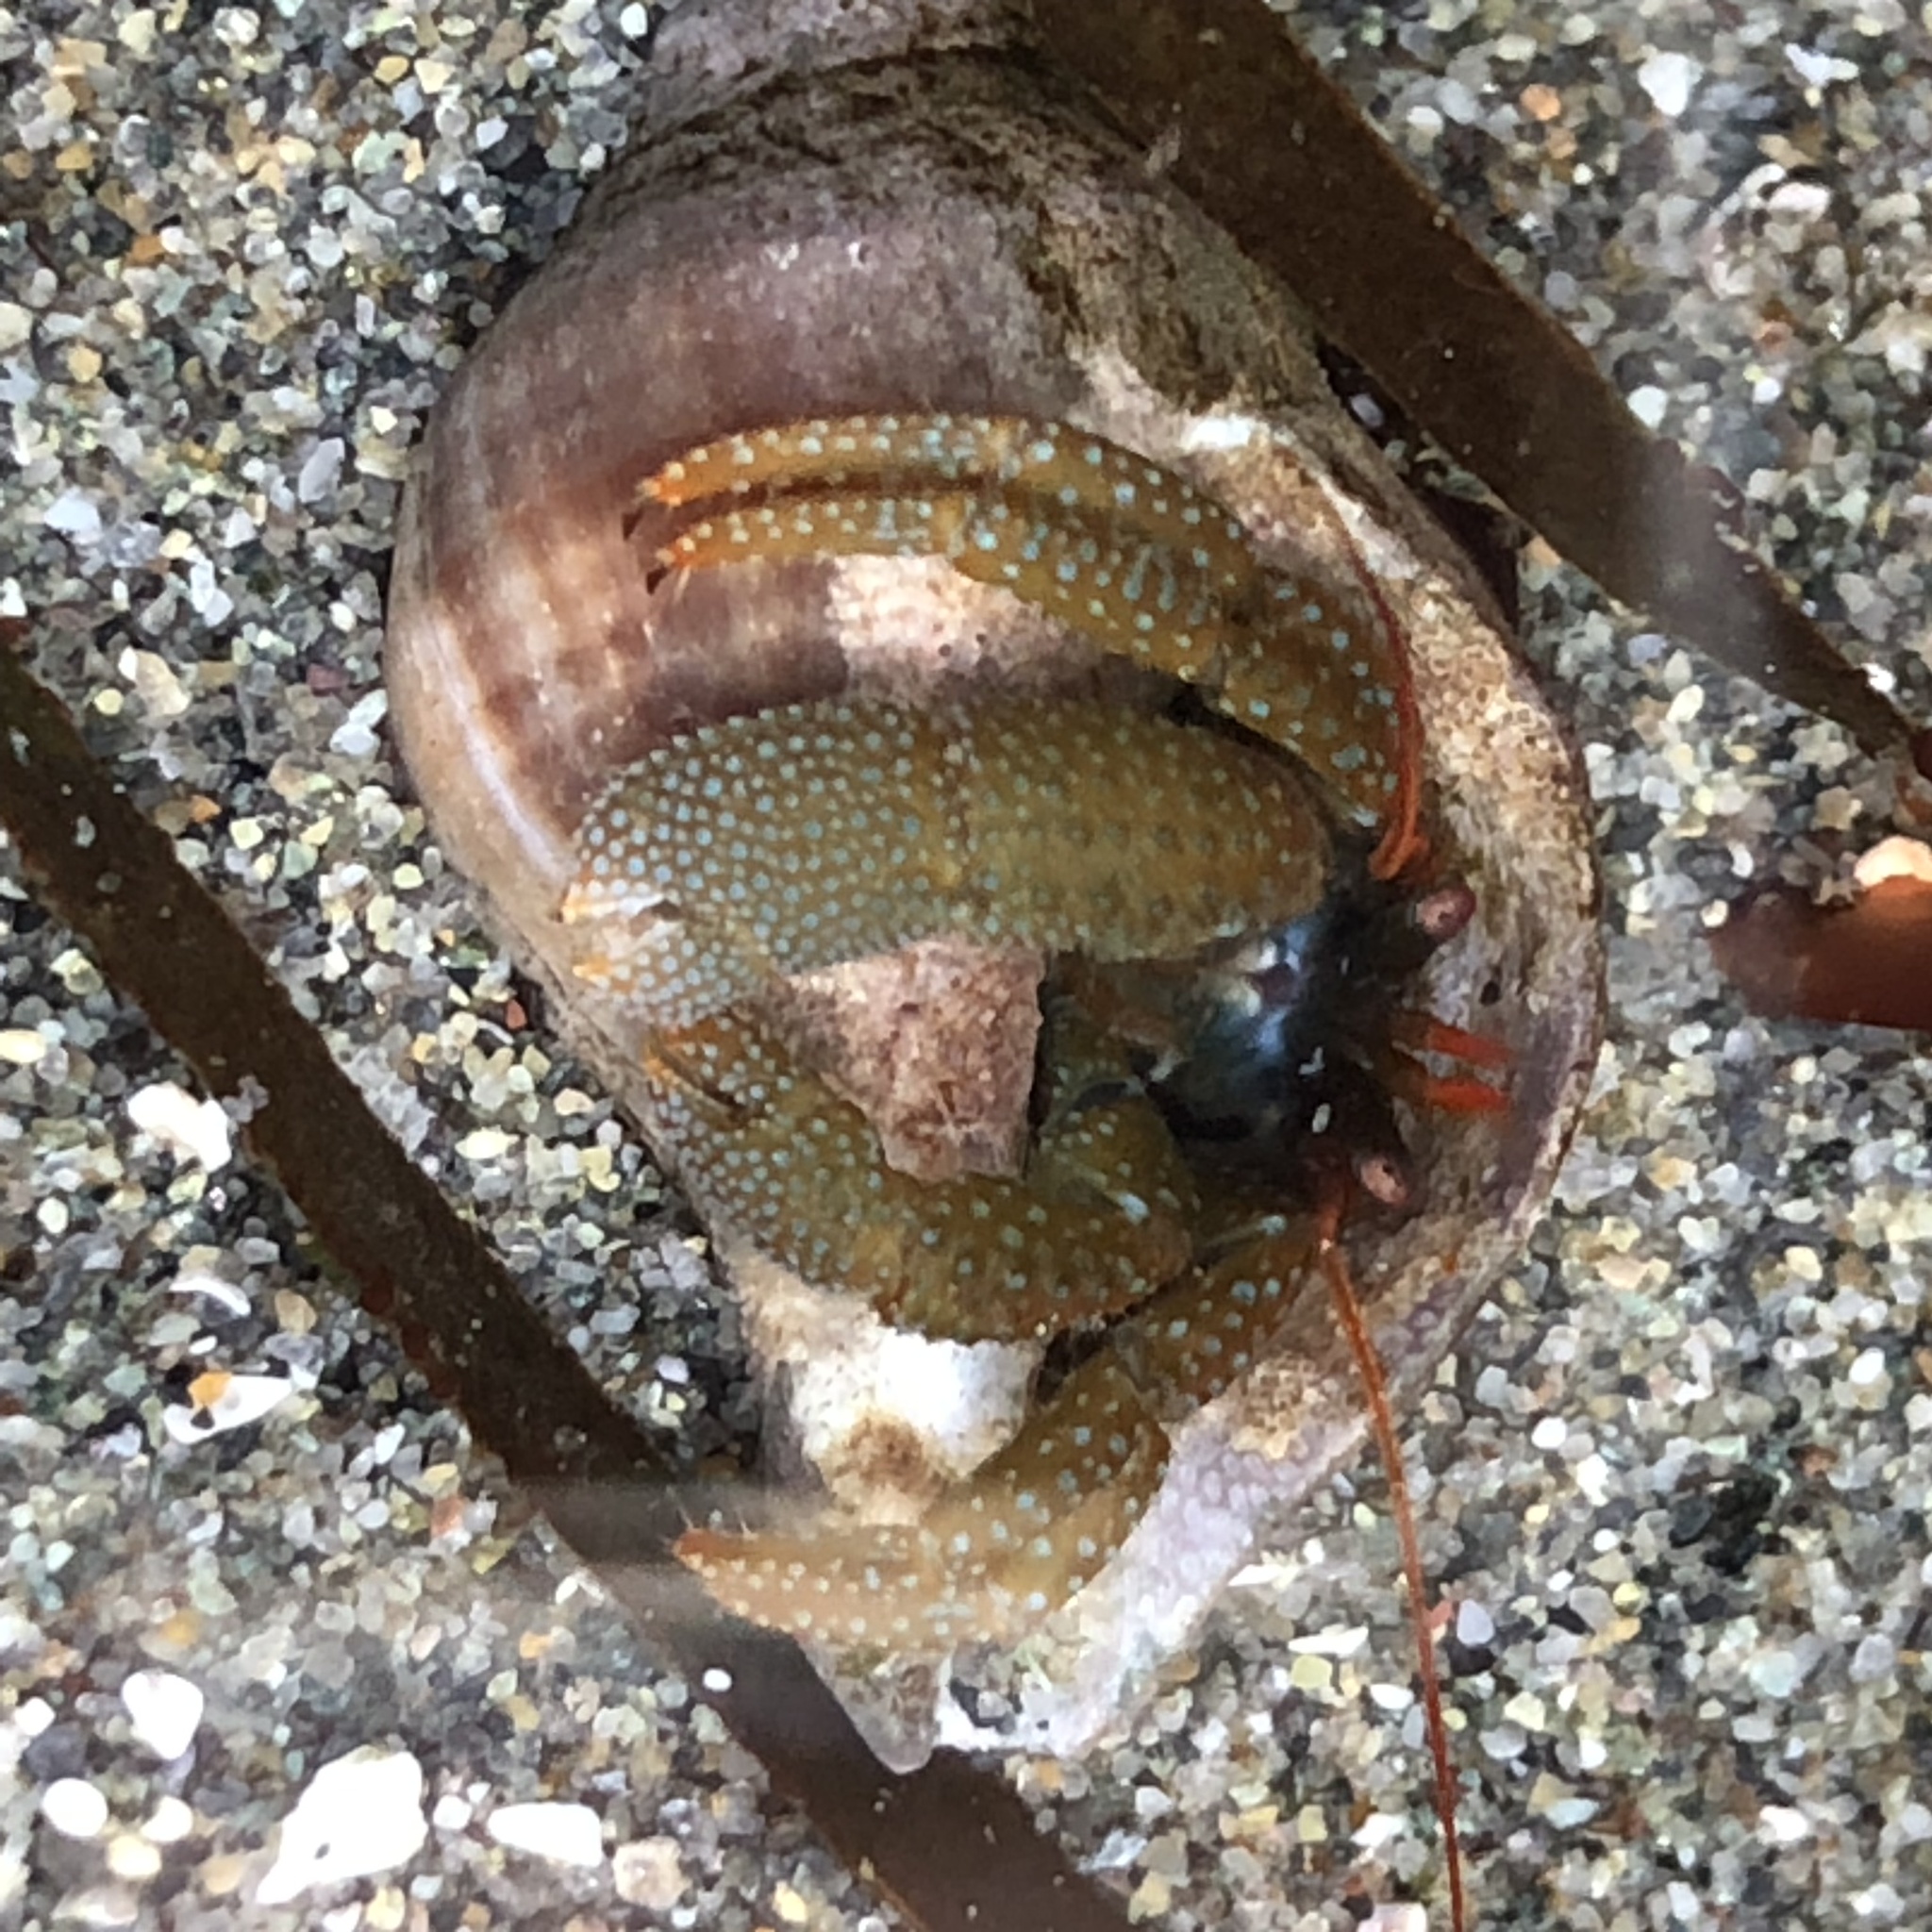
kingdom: Animalia
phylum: Arthropoda
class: Malacostraca
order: Decapoda
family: Paguridae
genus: Pagurus
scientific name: Pagurus granosimanus
